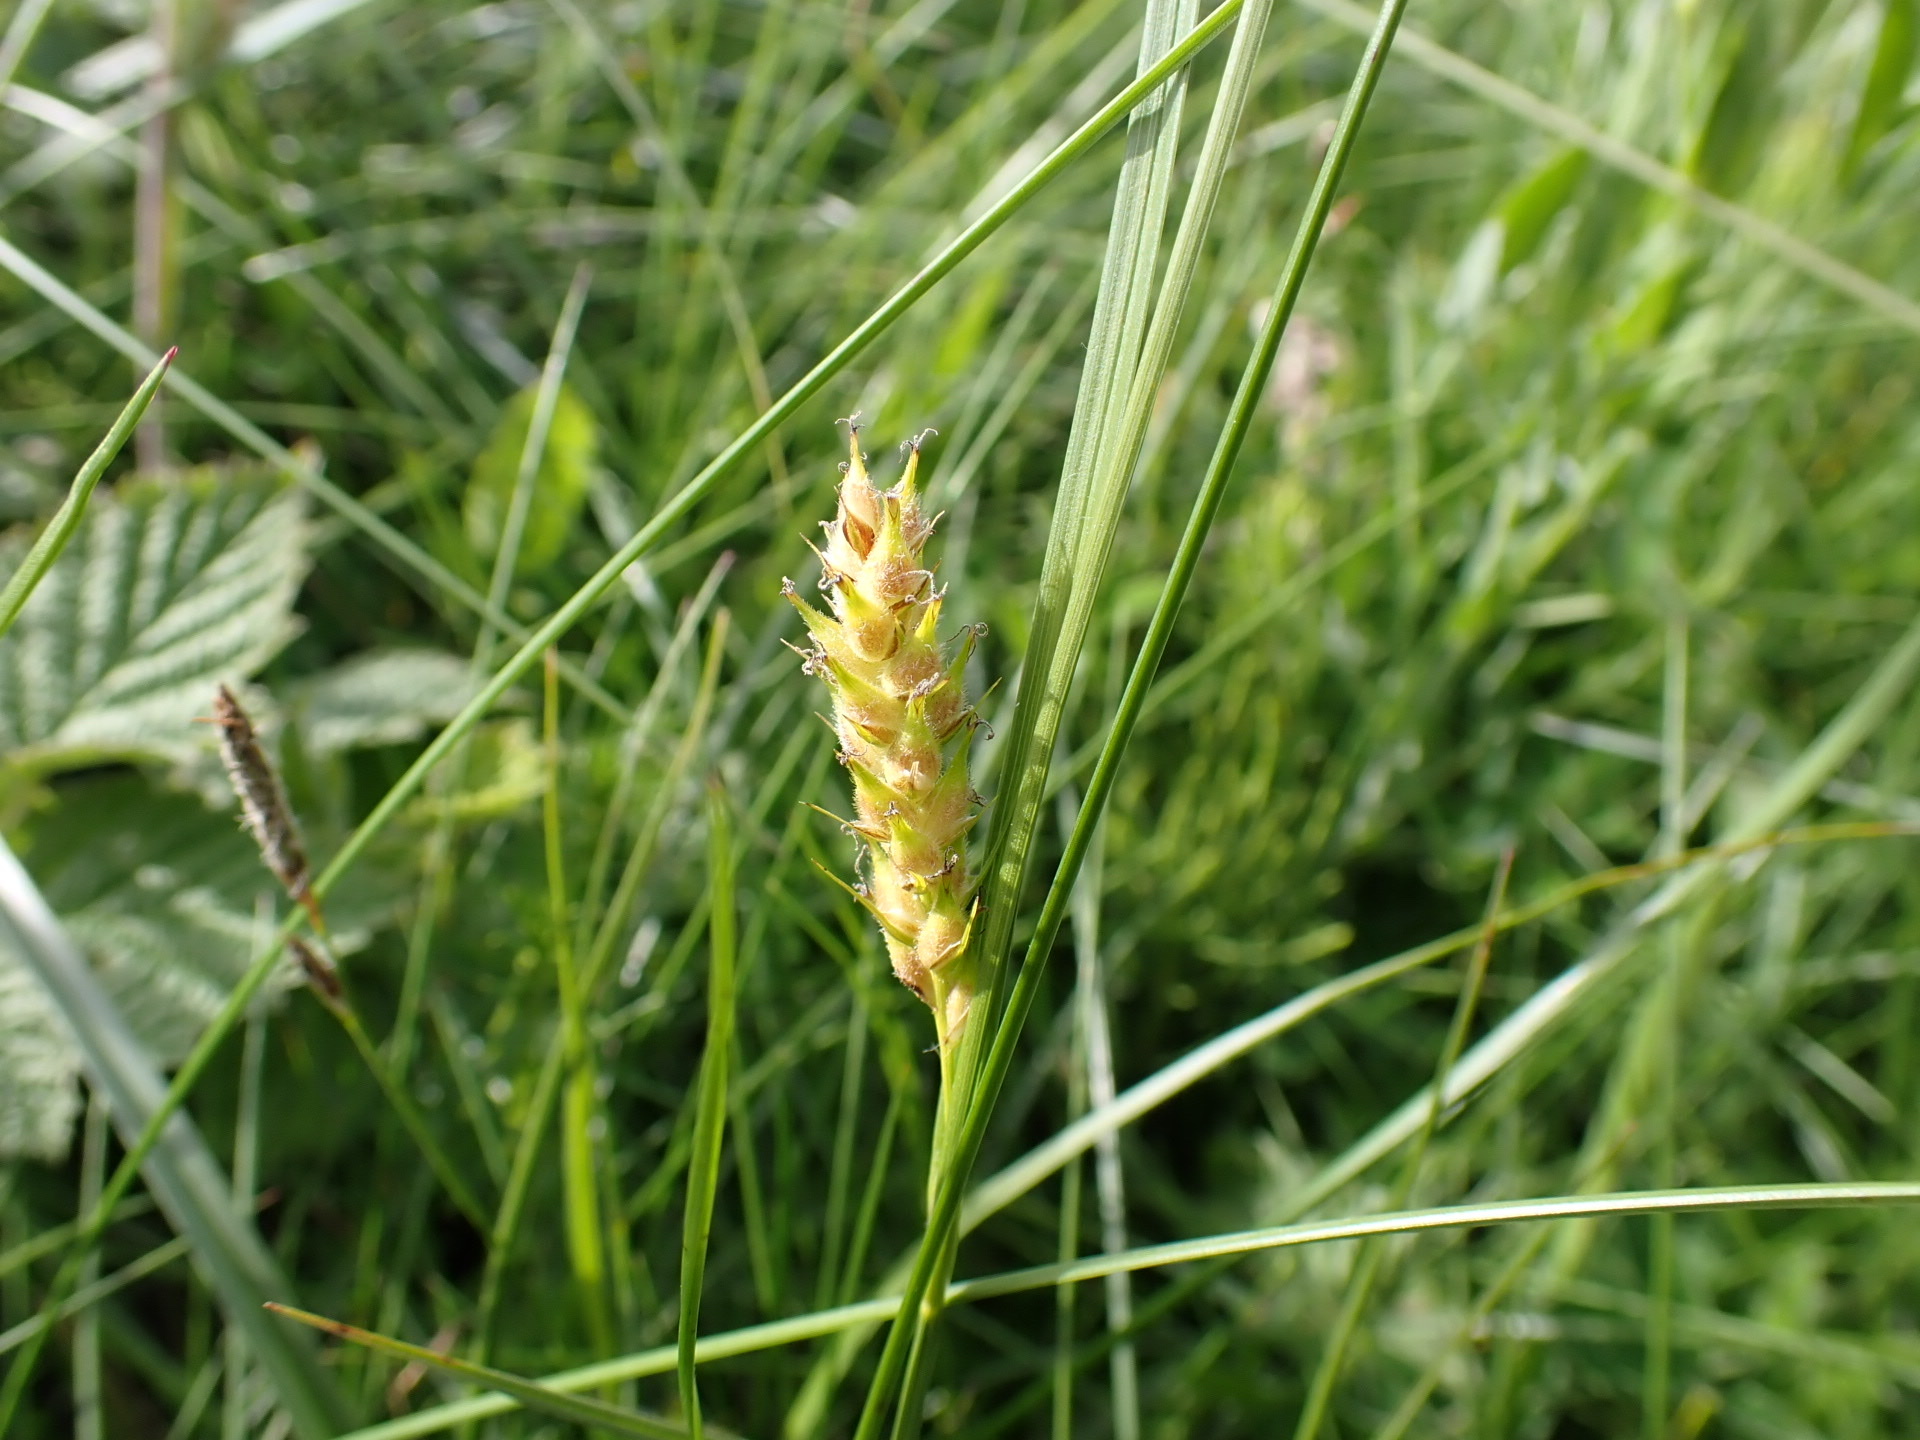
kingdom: Plantae
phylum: Tracheophyta
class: Liliopsida
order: Poales
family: Cyperaceae
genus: Carex
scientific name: Carex hirta
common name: Hairy sedge
